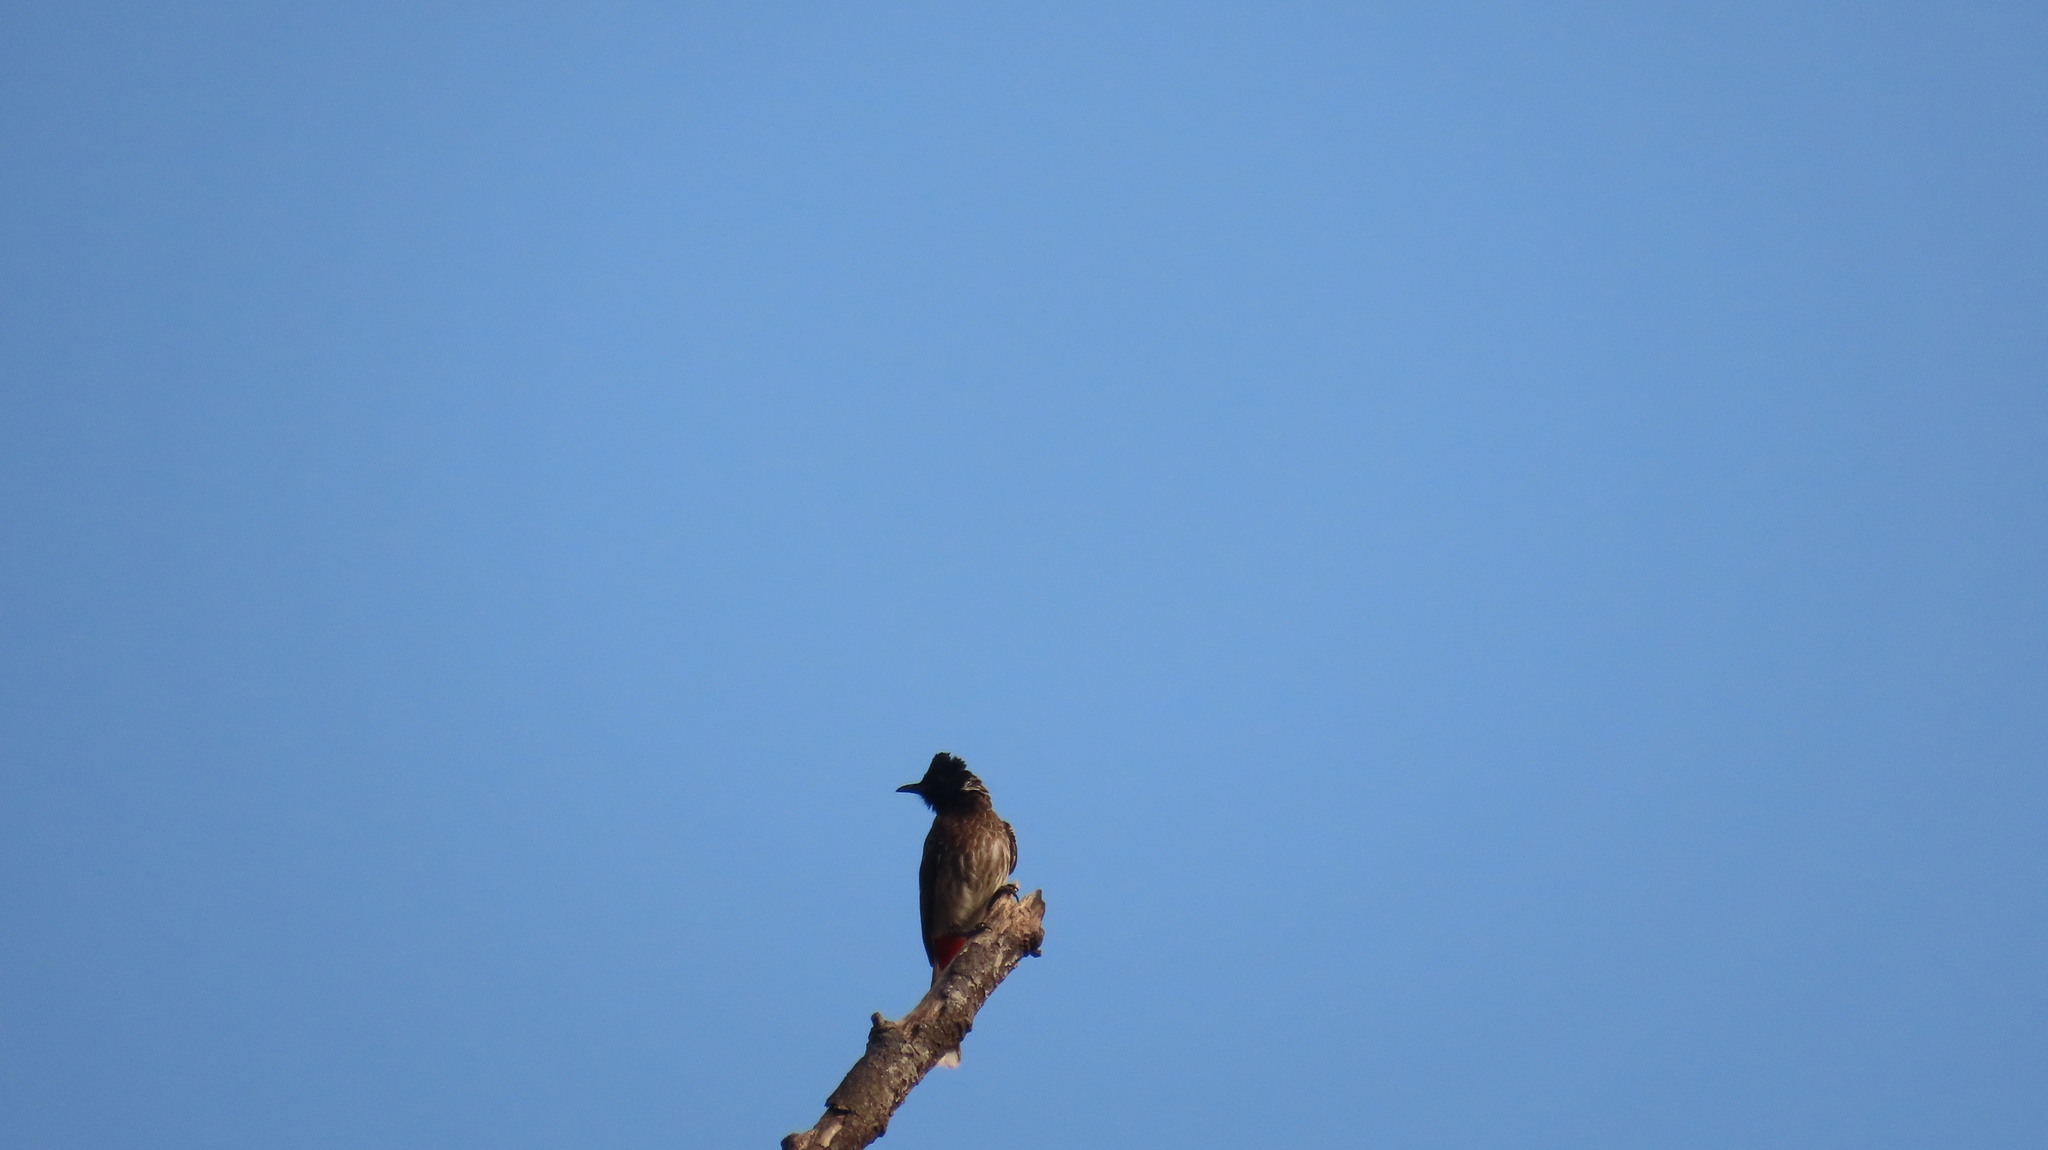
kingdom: Animalia
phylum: Chordata
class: Aves
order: Passeriformes
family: Pycnonotidae
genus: Pycnonotus
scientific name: Pycnonotus cafer
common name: Red-vented bulbul
